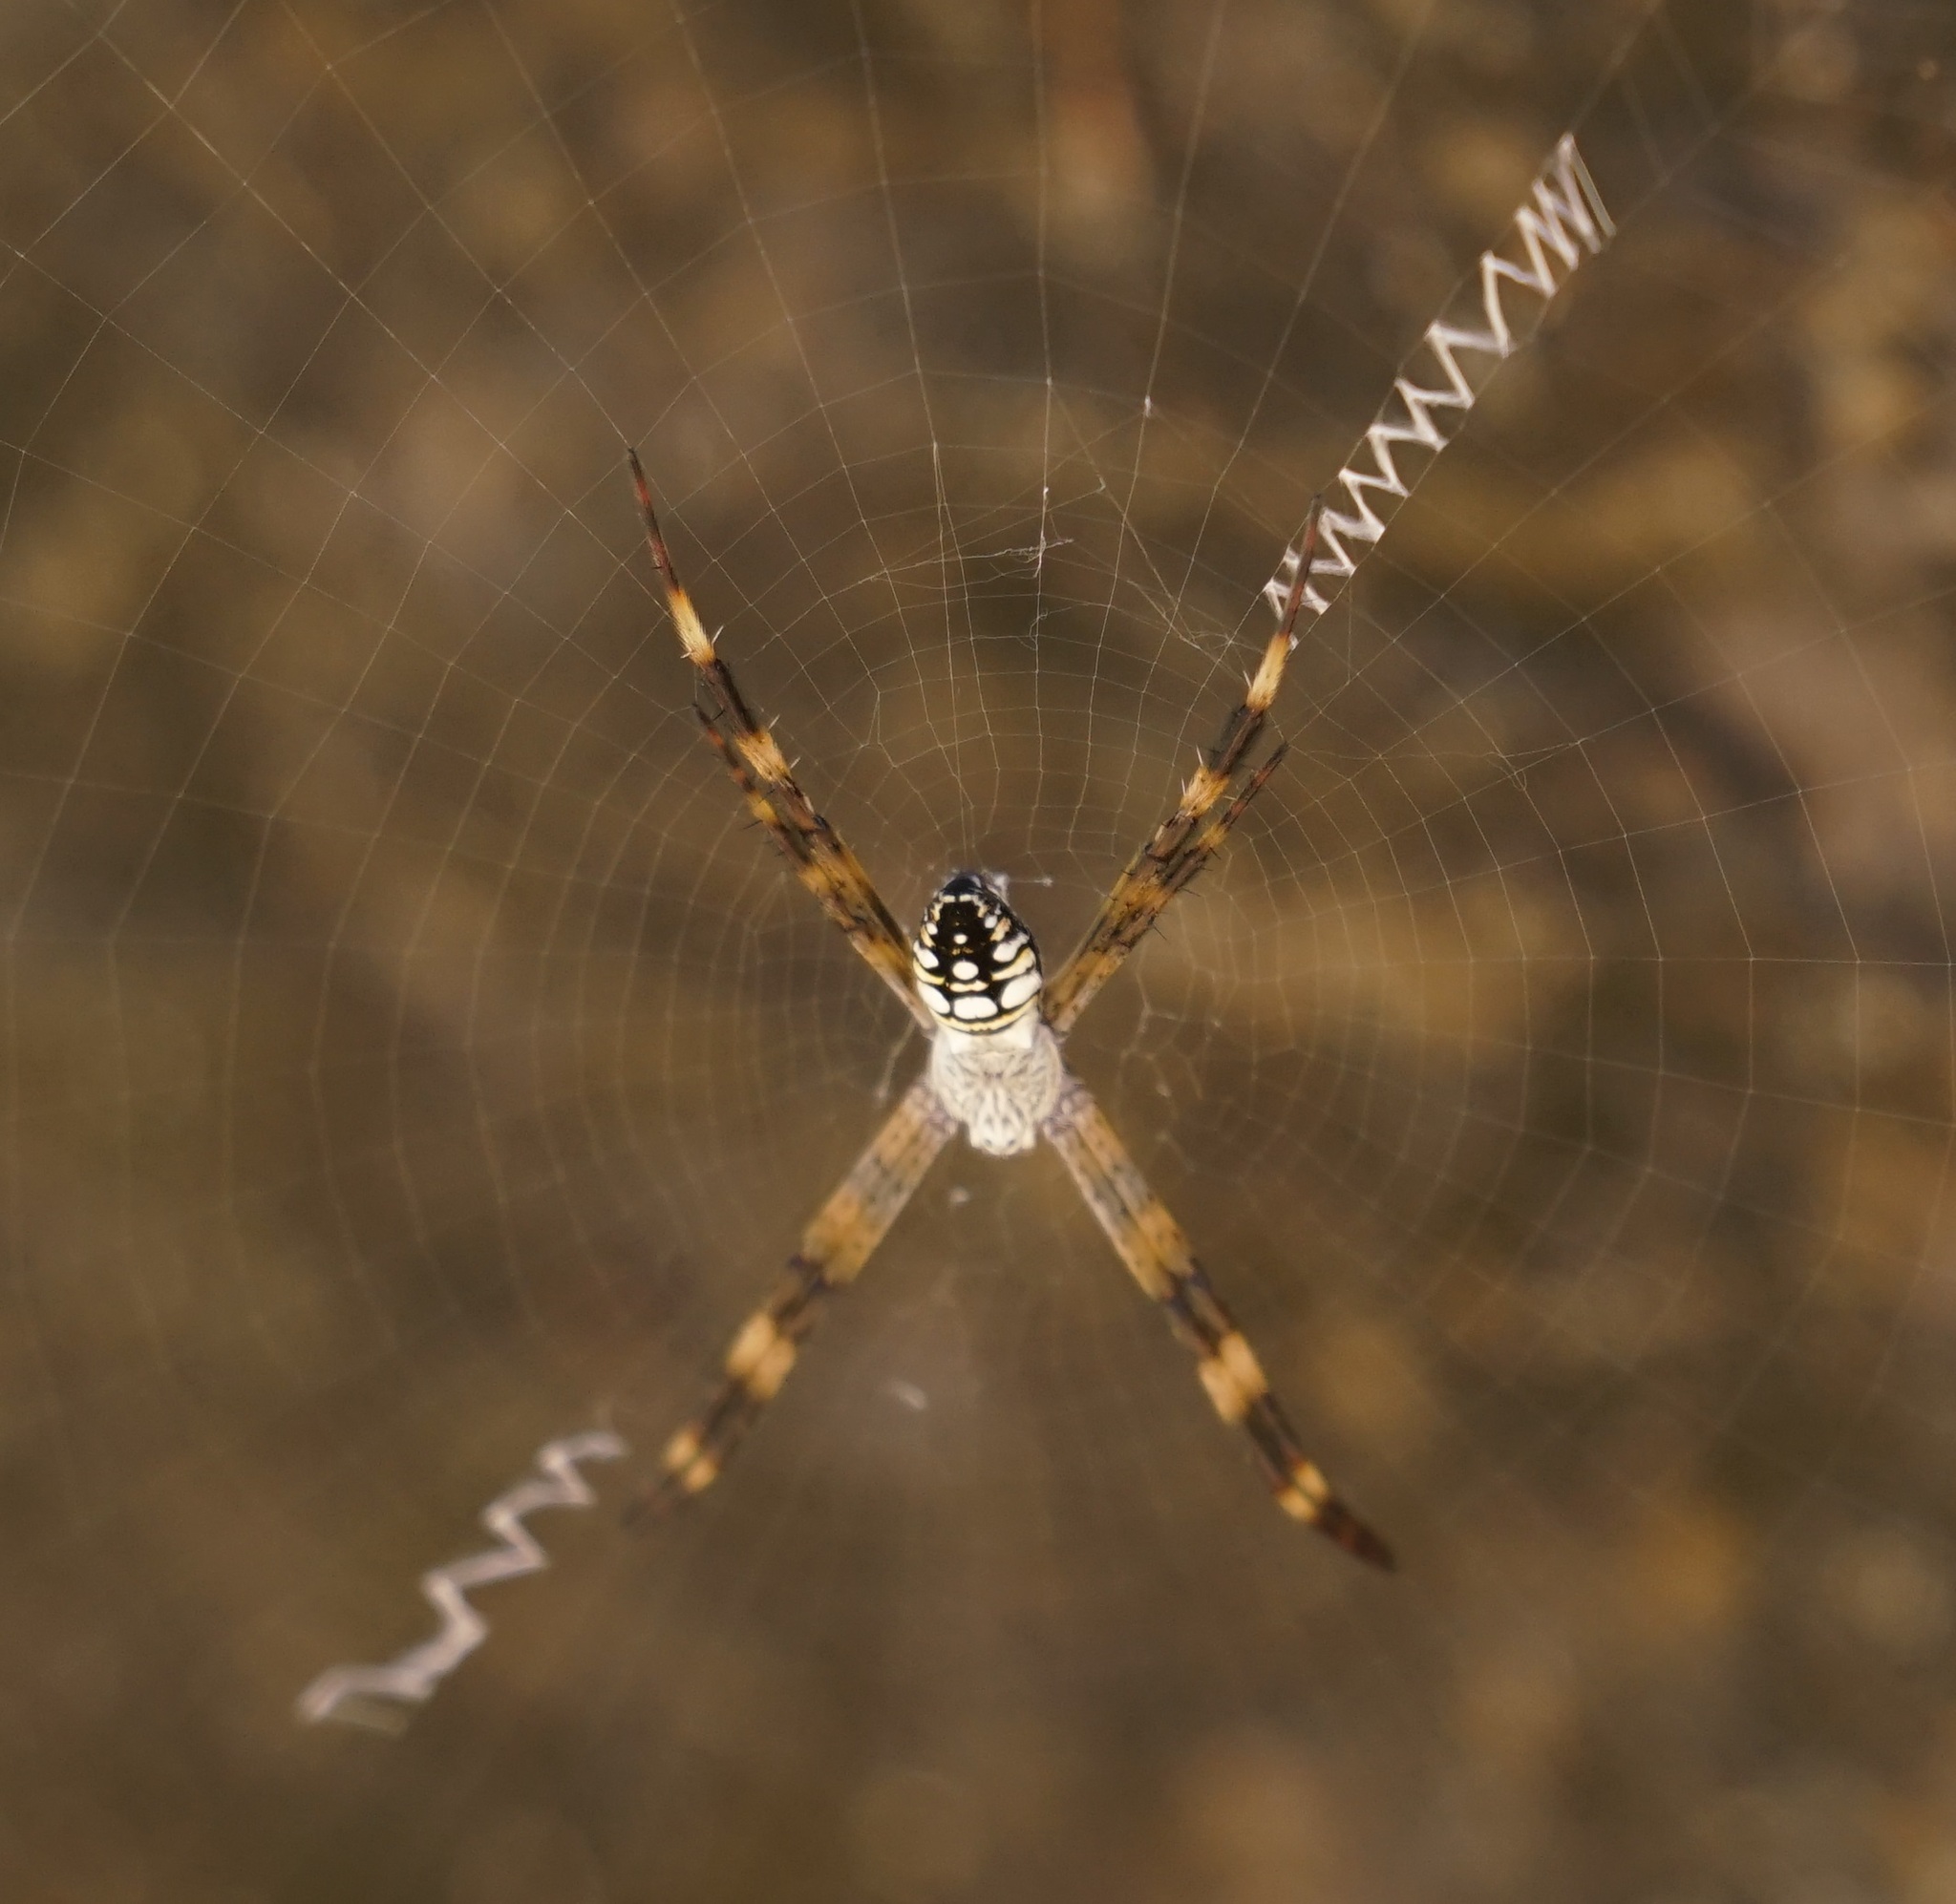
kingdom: Animalia
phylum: Arthropoda
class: Arachnida
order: Araneae
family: Araneidae
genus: Argiope
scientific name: Argiope picta
